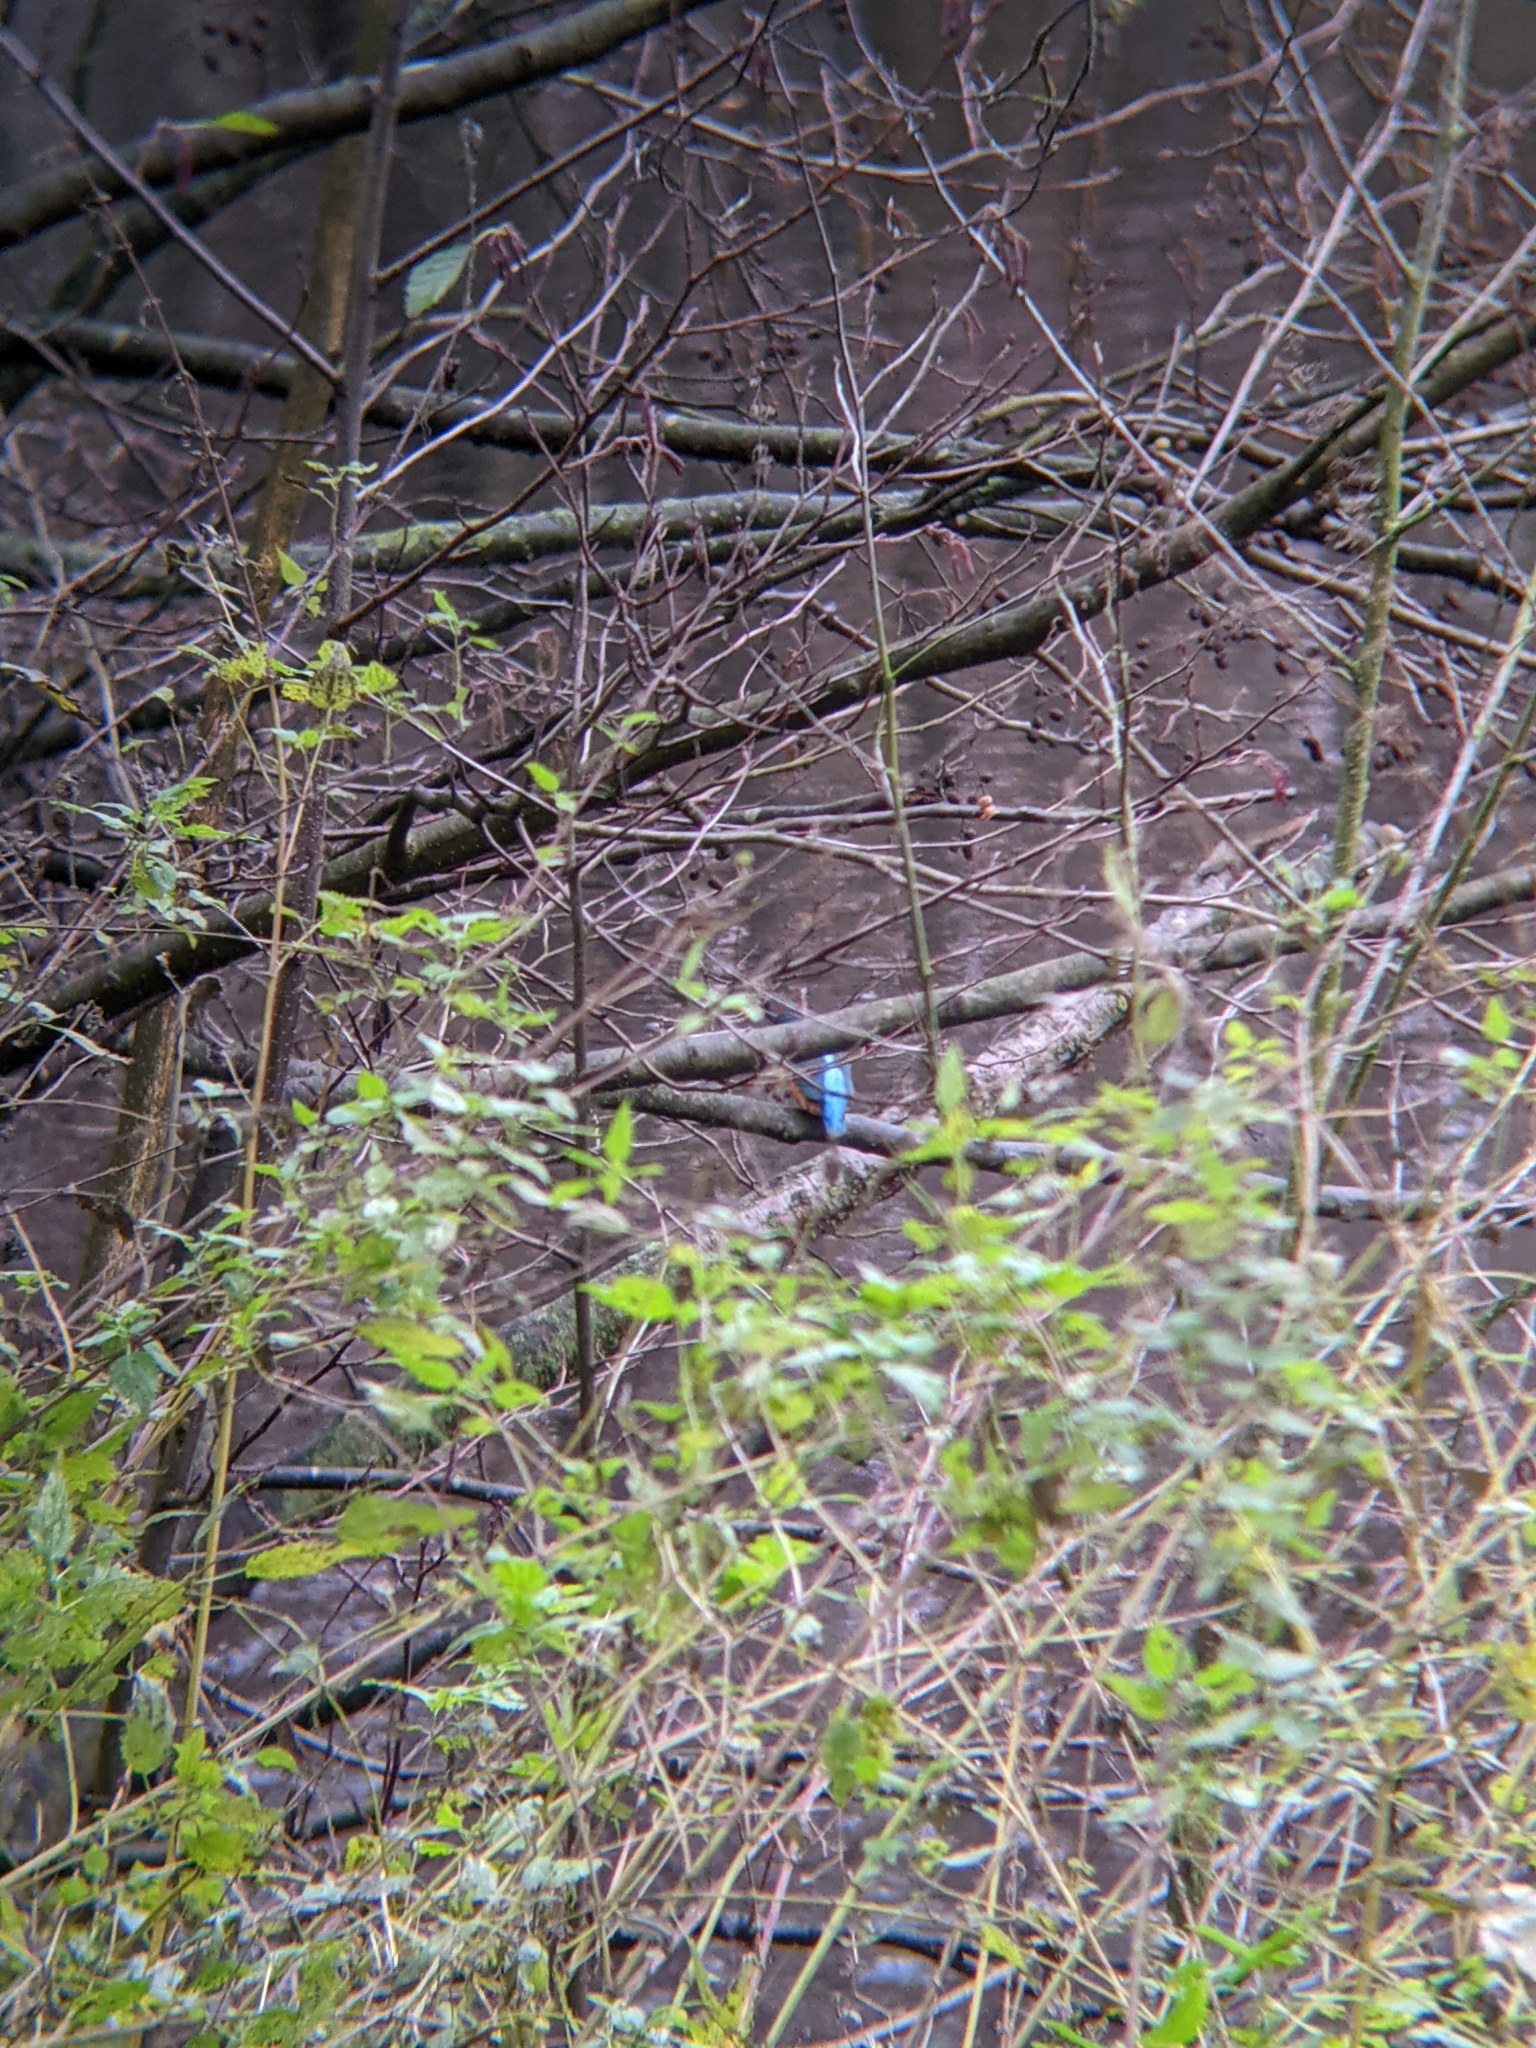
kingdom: Animalia
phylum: Chordata
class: Aves
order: Coraciiformes
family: Alcedinidae
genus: Alcedo
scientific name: Alcedo atthis
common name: Common kingfisher
